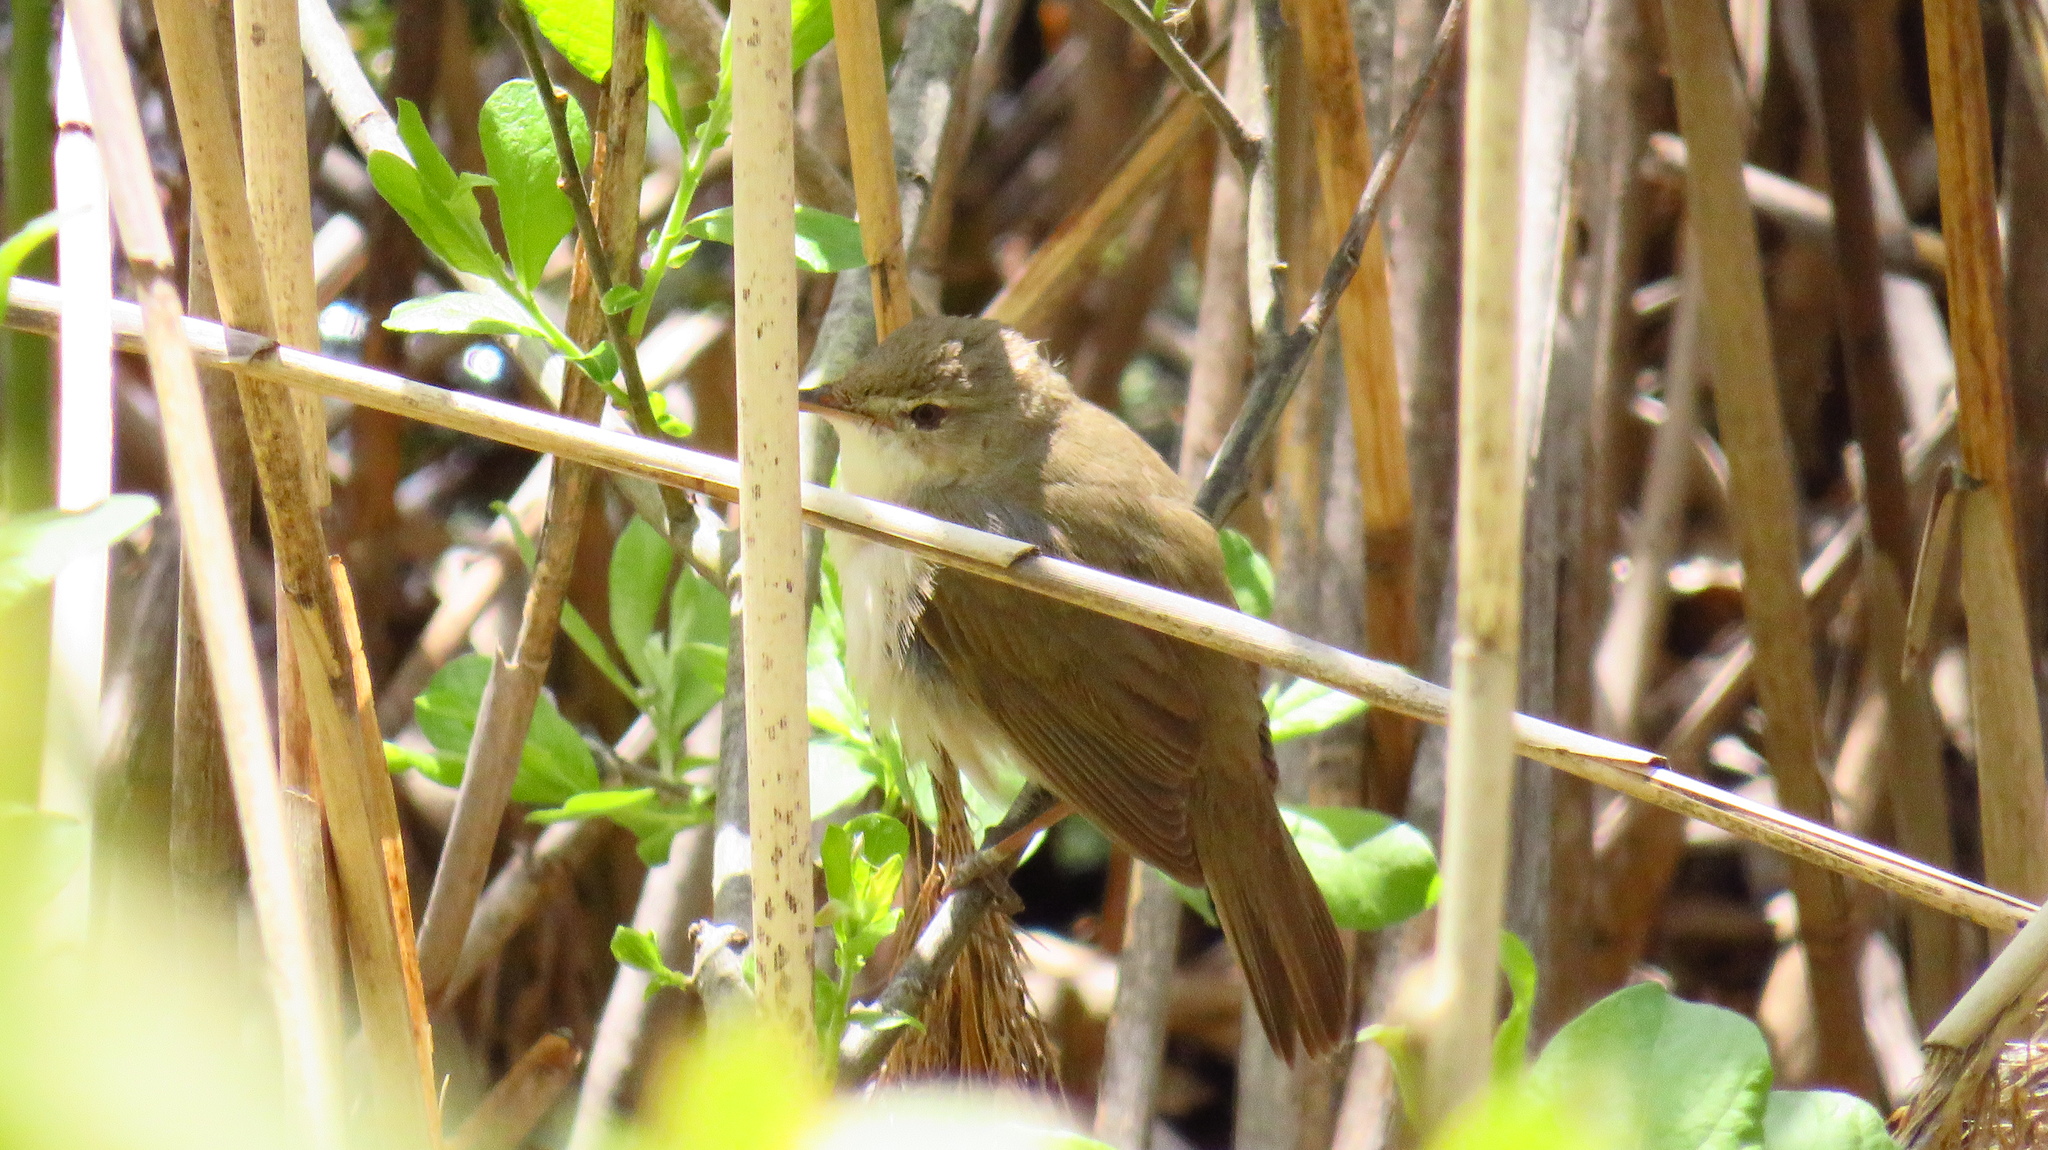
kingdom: Animalia
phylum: Chordata
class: Aves
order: Passeriformes
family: Acrocephalidae
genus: Acrocephalus
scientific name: Acrocephalus dumetorum
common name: Blyth's reed warbler
